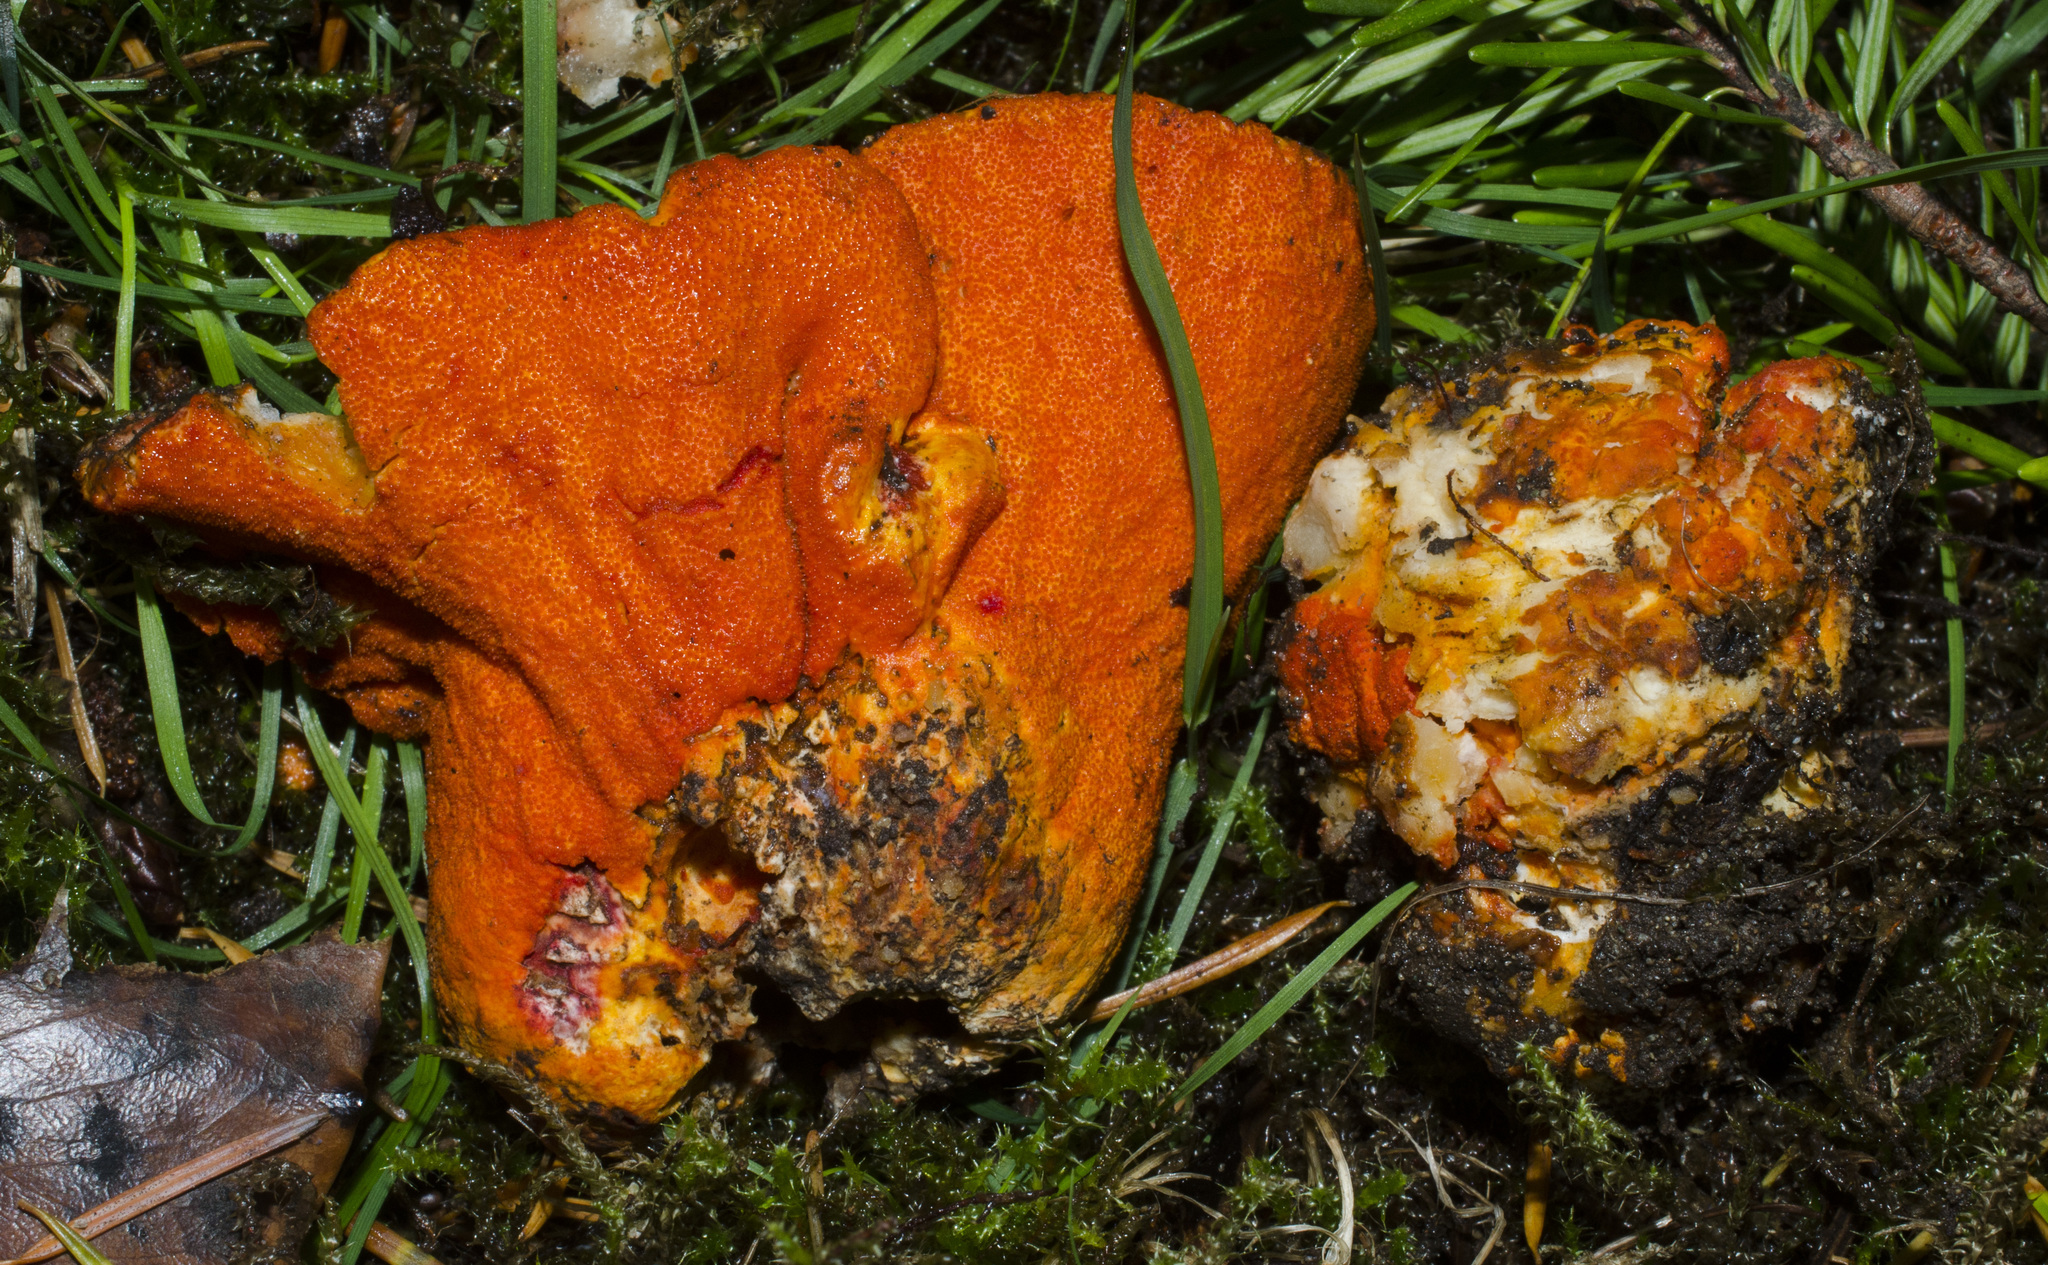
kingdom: Fungi
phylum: Ascomycota
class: Sordariomycetes
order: Hypocreales
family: Hypocreaceae
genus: Hypomyces
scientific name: Hypomyces lactifluorum
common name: Lobster mushroom
